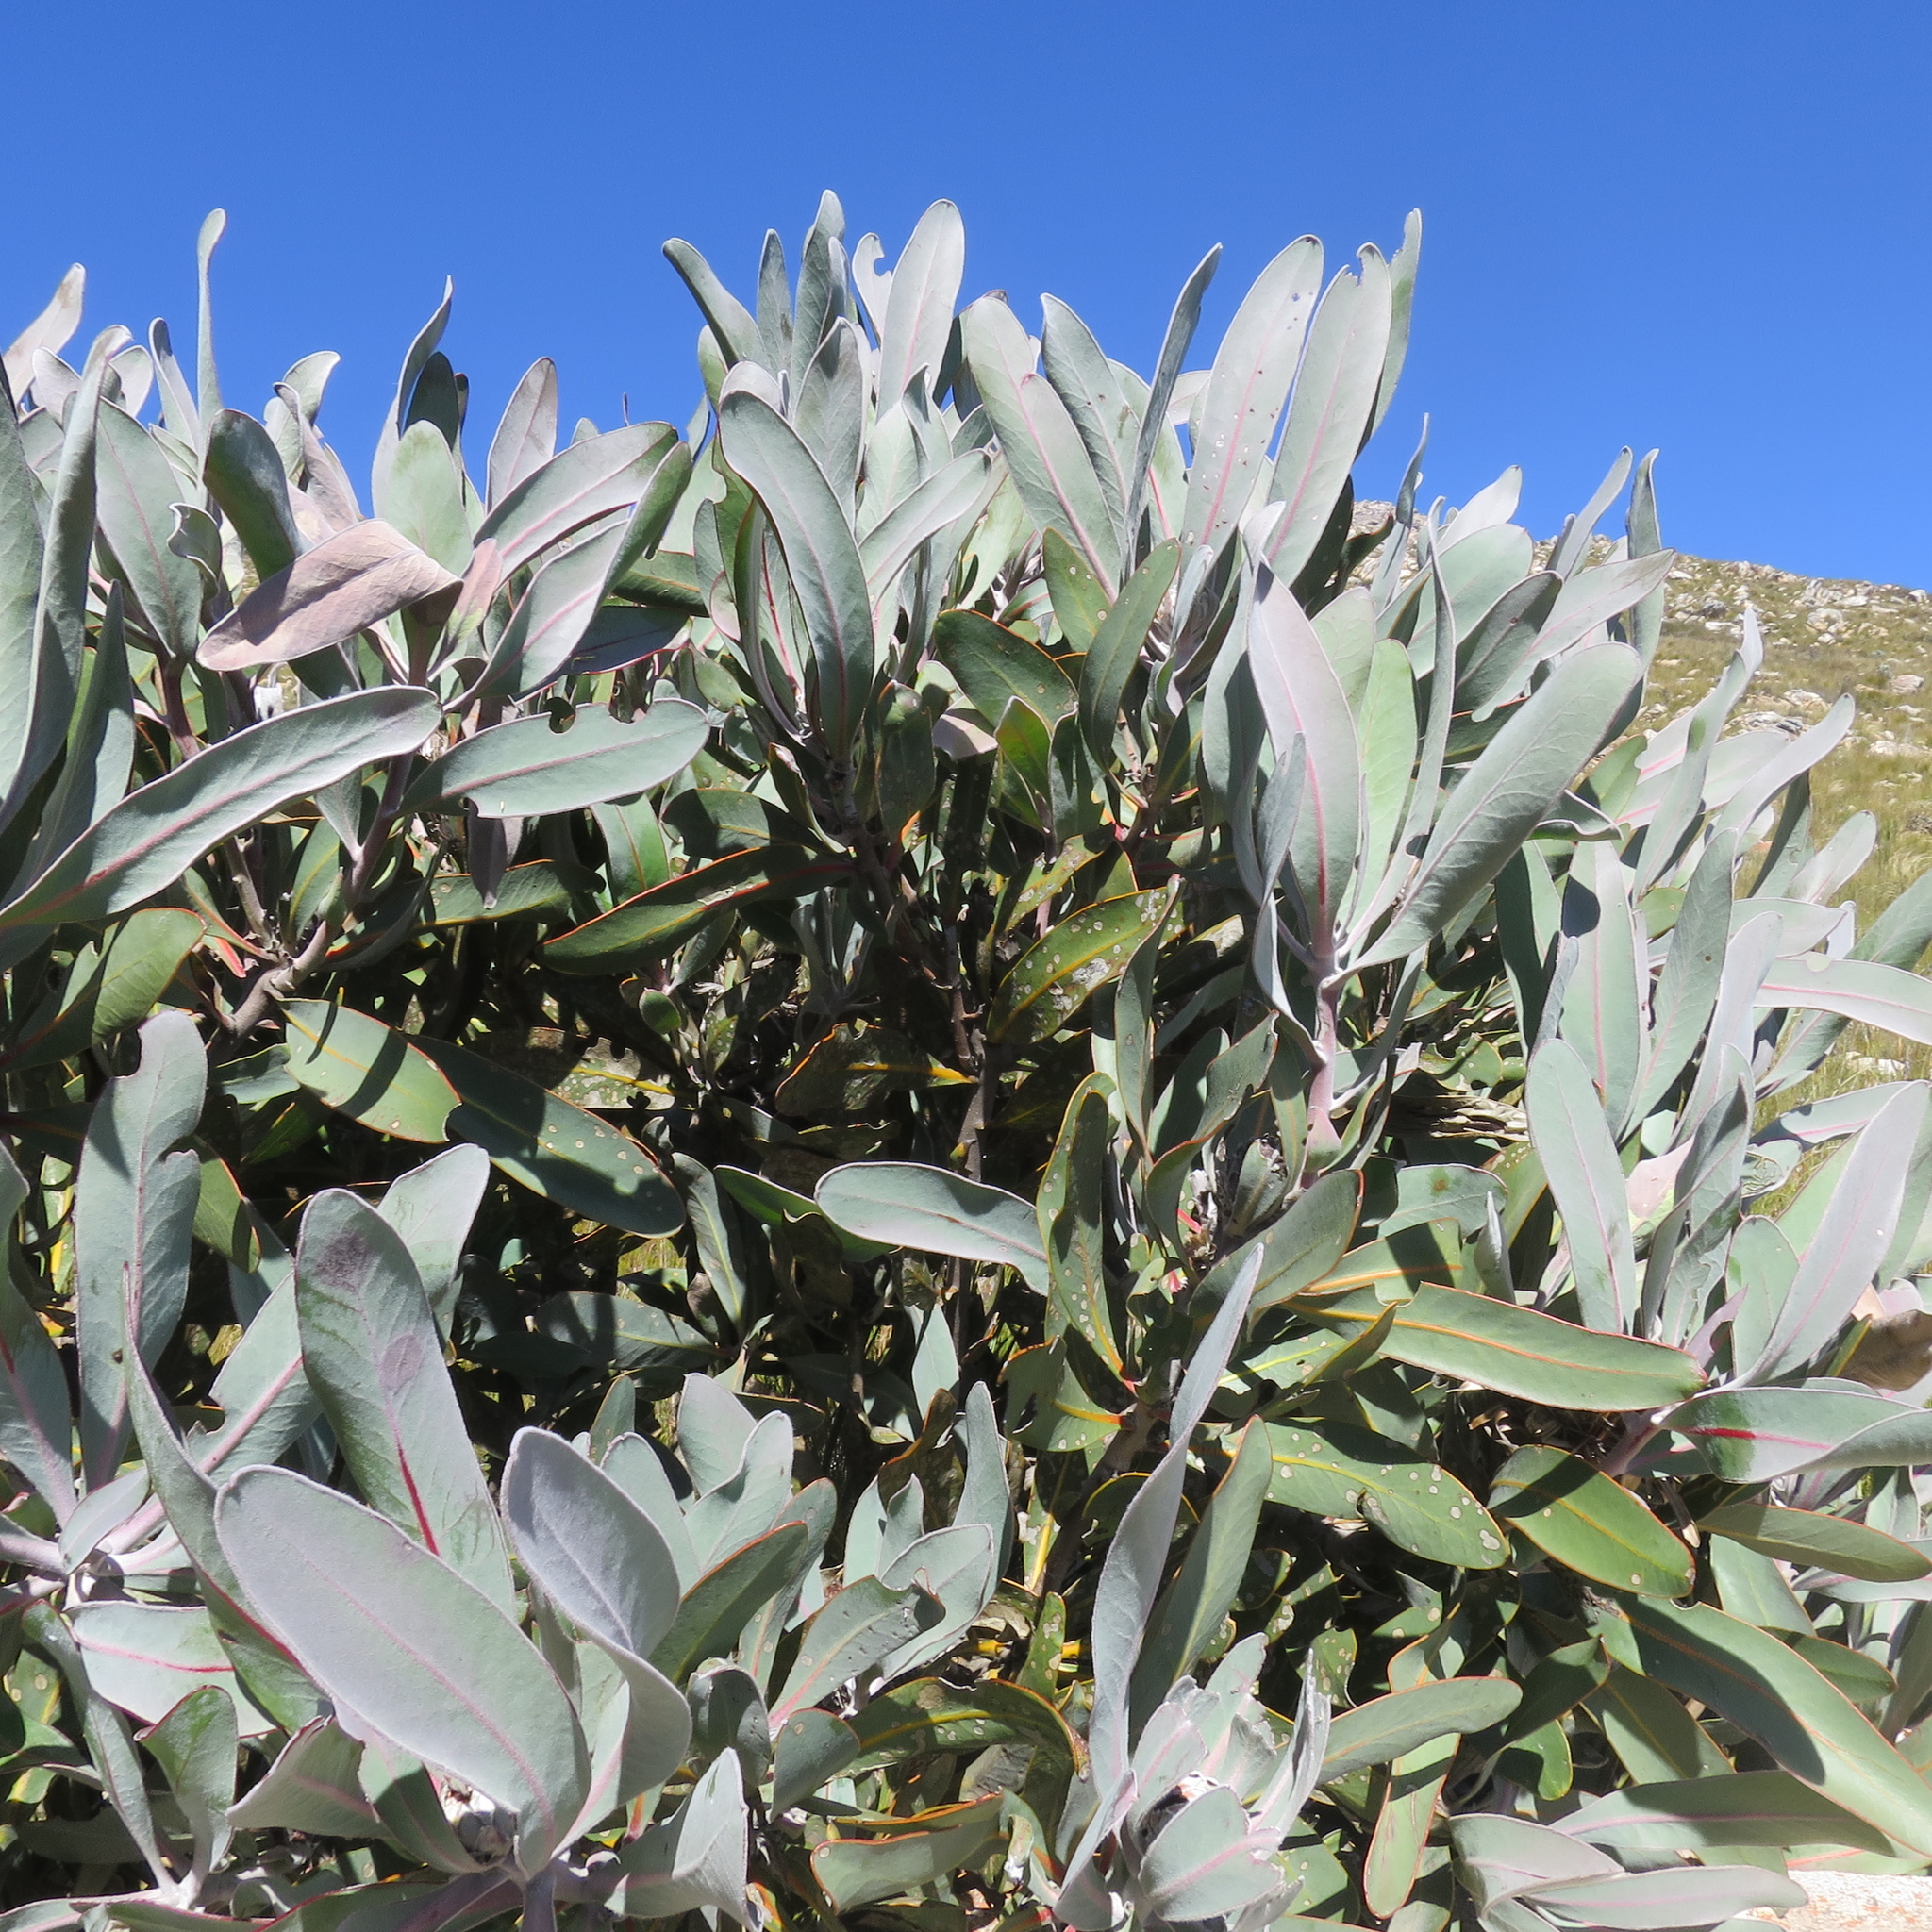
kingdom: Plantae
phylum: Tracheophyta
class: Magnoliopsida
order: Proteales
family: Proteaceae
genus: Protea
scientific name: Protea lorifolia
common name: Strap-leaved protea
